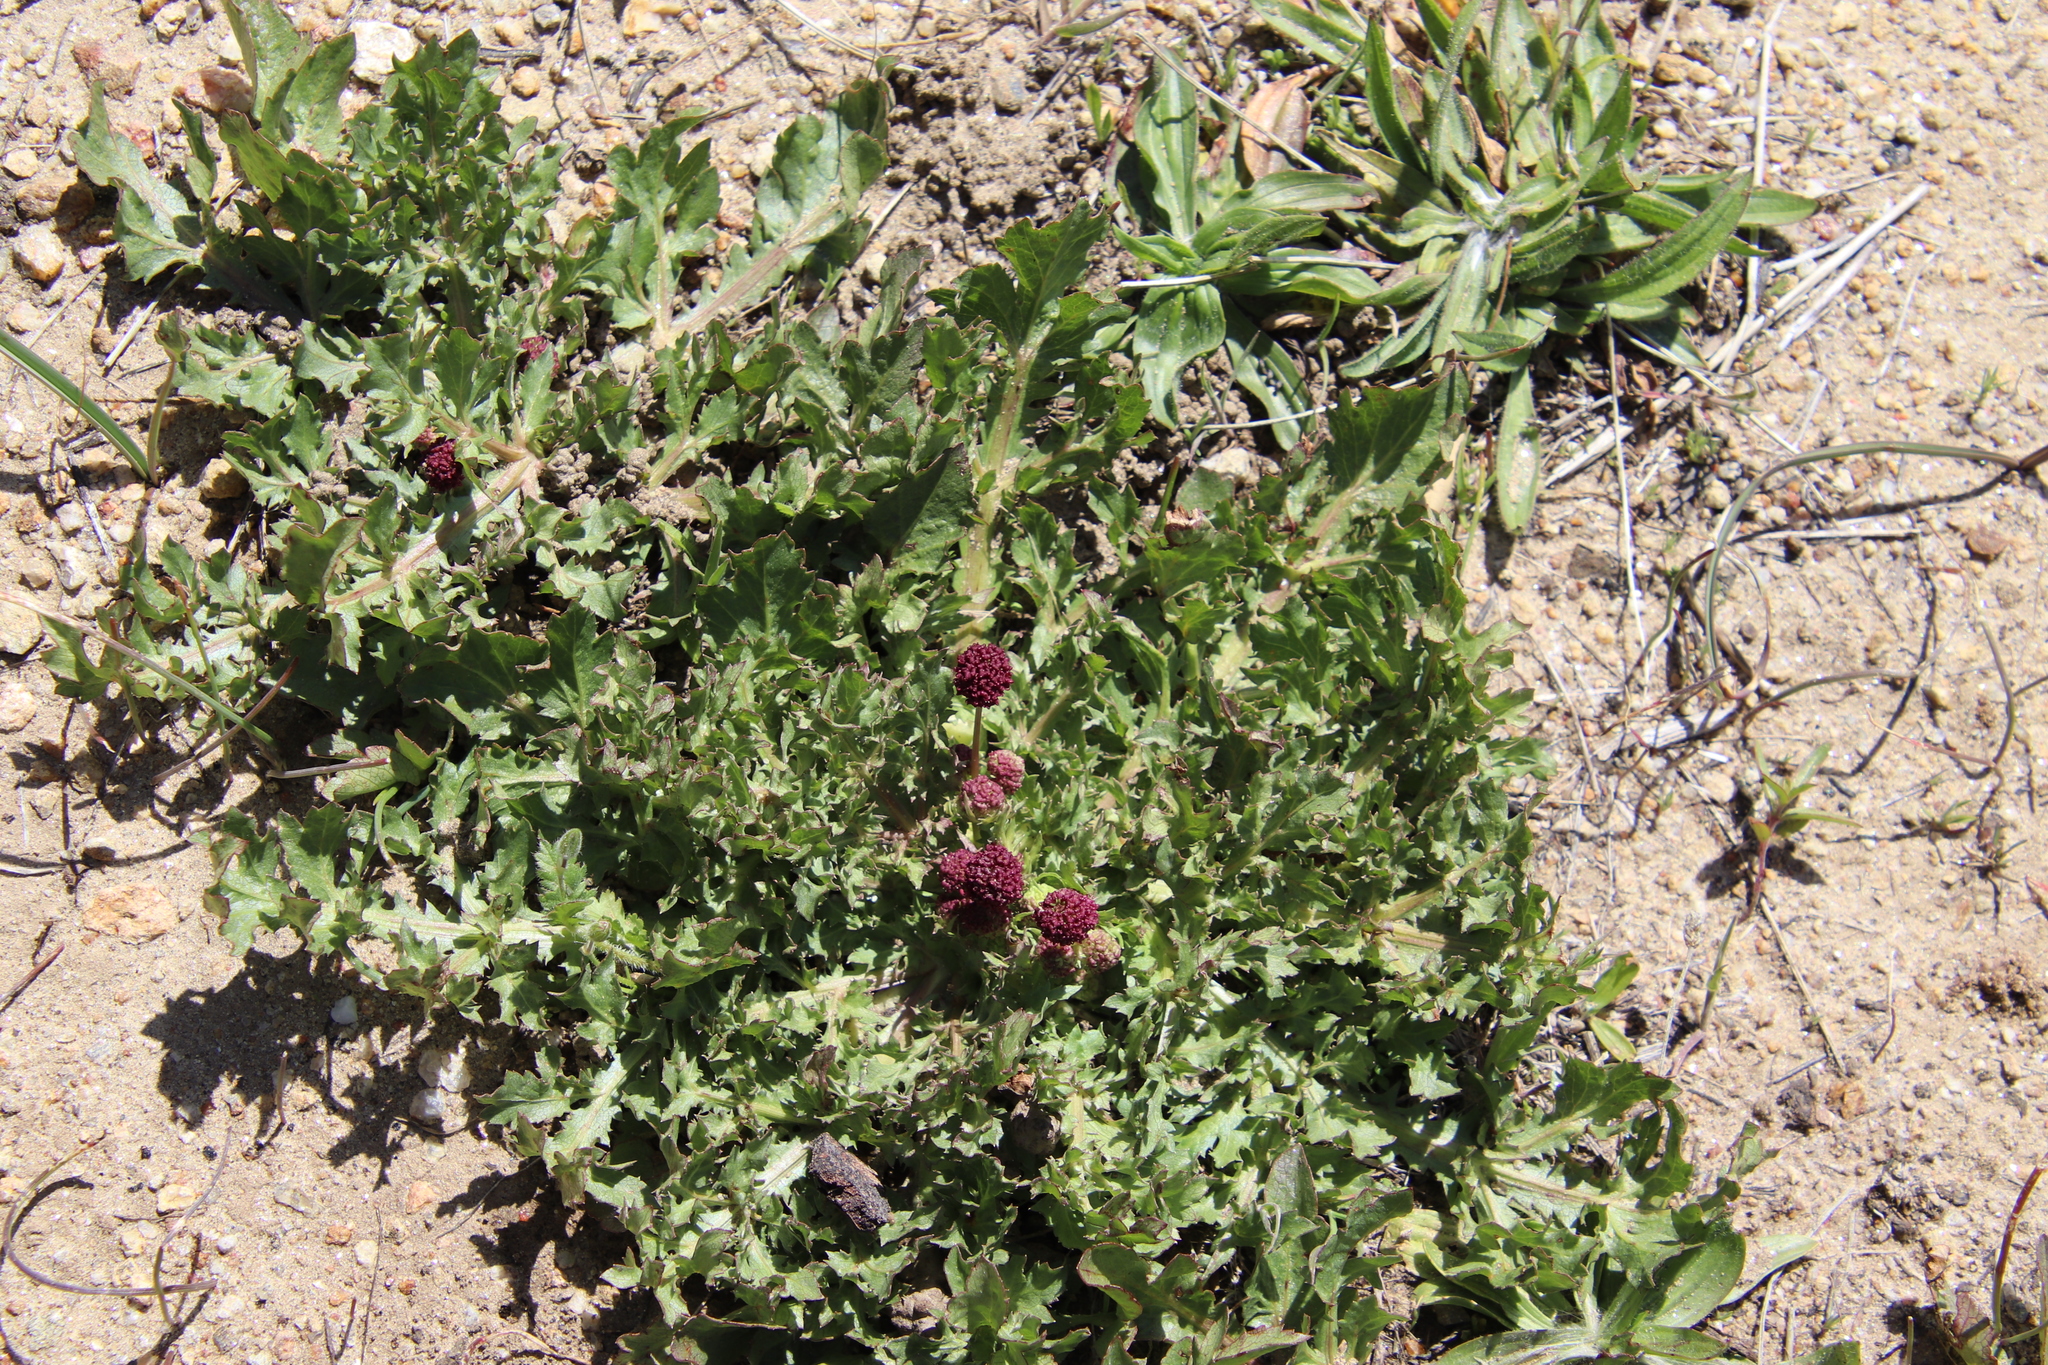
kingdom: Plantae
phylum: Tracheophyta
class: Magnoliopsida
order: Apiales
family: Apiaceae
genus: Sanicula
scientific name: Sanicula bipinnatifida
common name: Shoe-buttons
